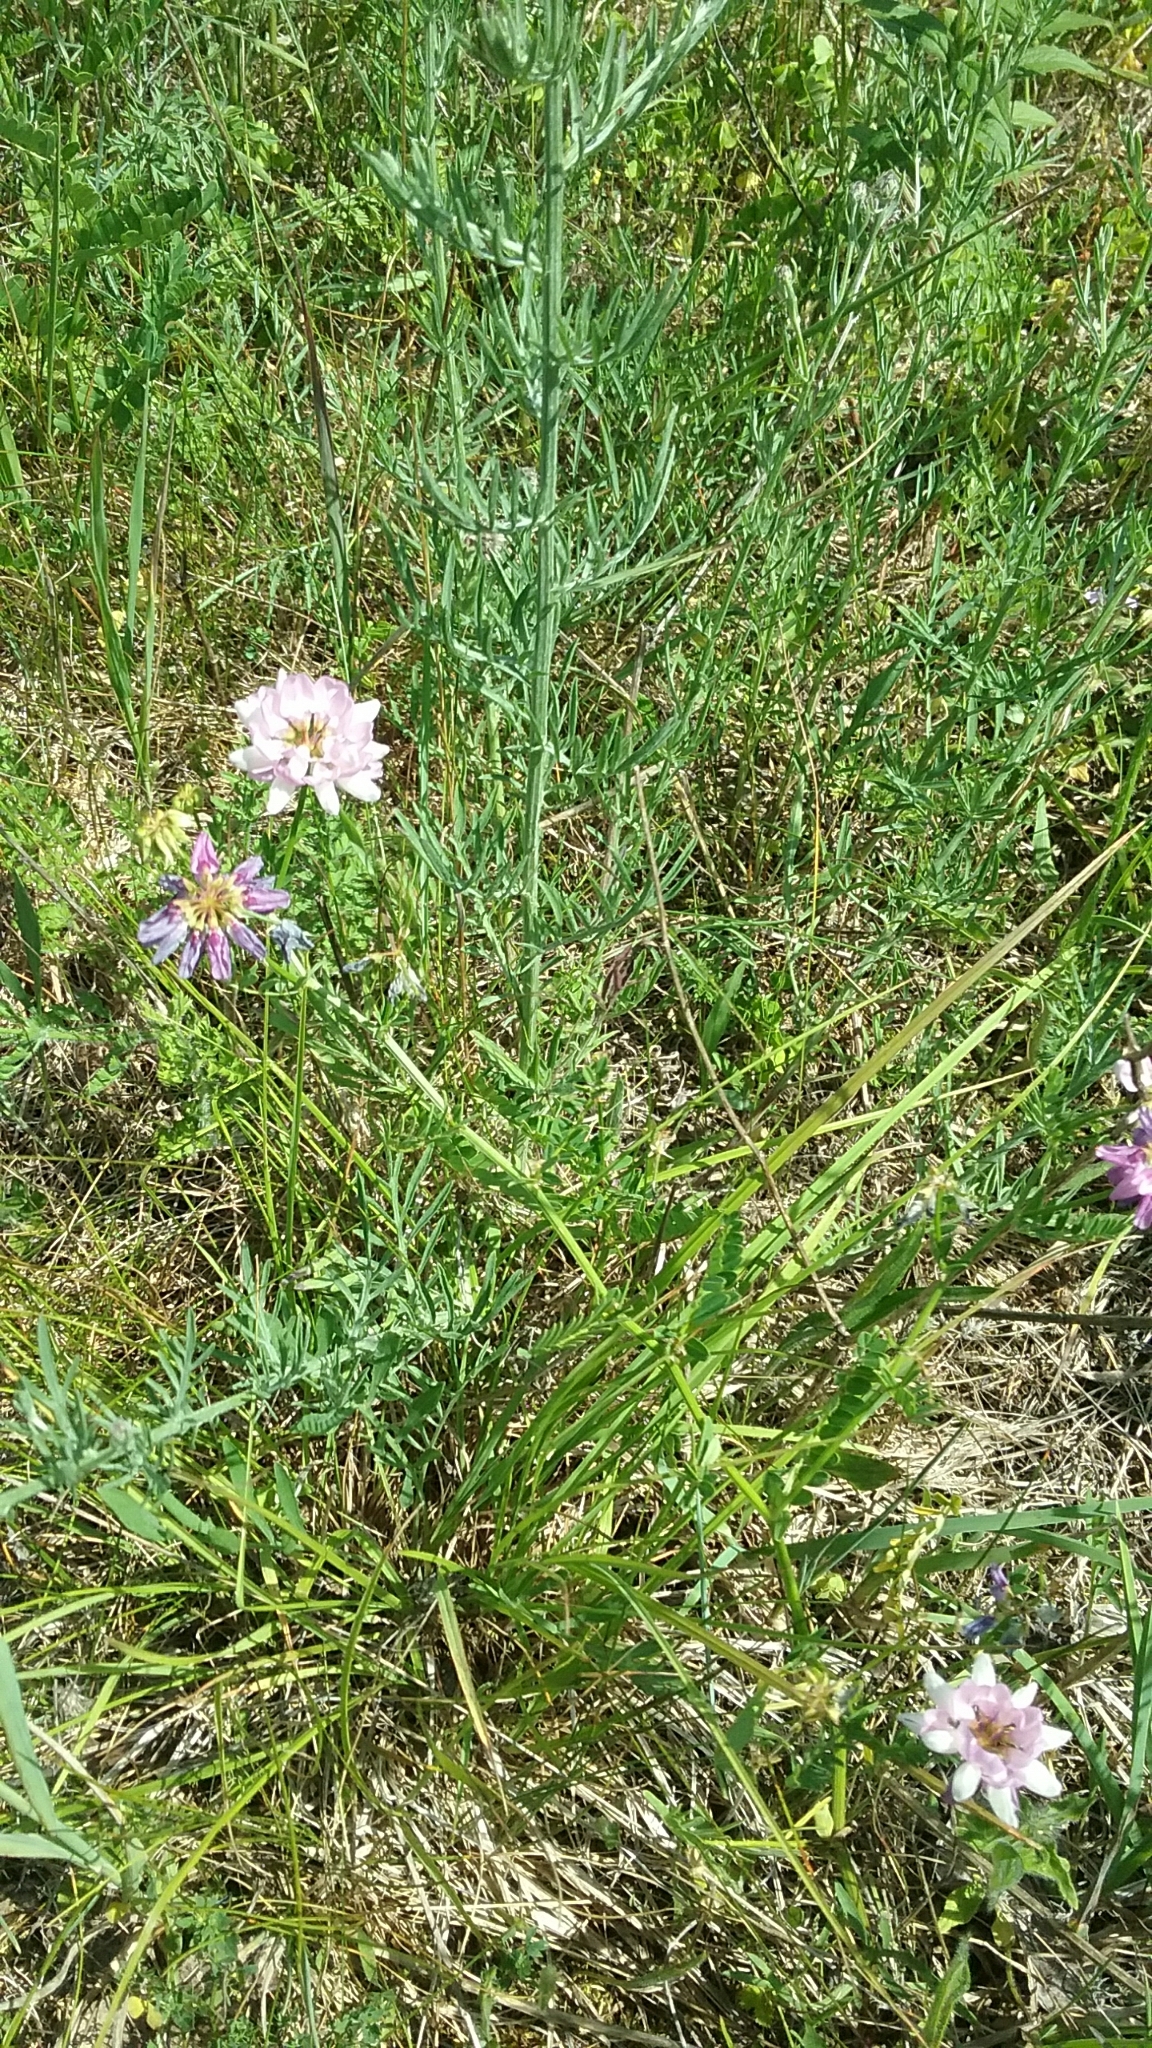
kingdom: Plantae
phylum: Tracheophyta
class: Magnoliopsida
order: Fabales
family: Fabaceae
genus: Coronilla
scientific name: Coronilla varia
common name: Crownvetch
